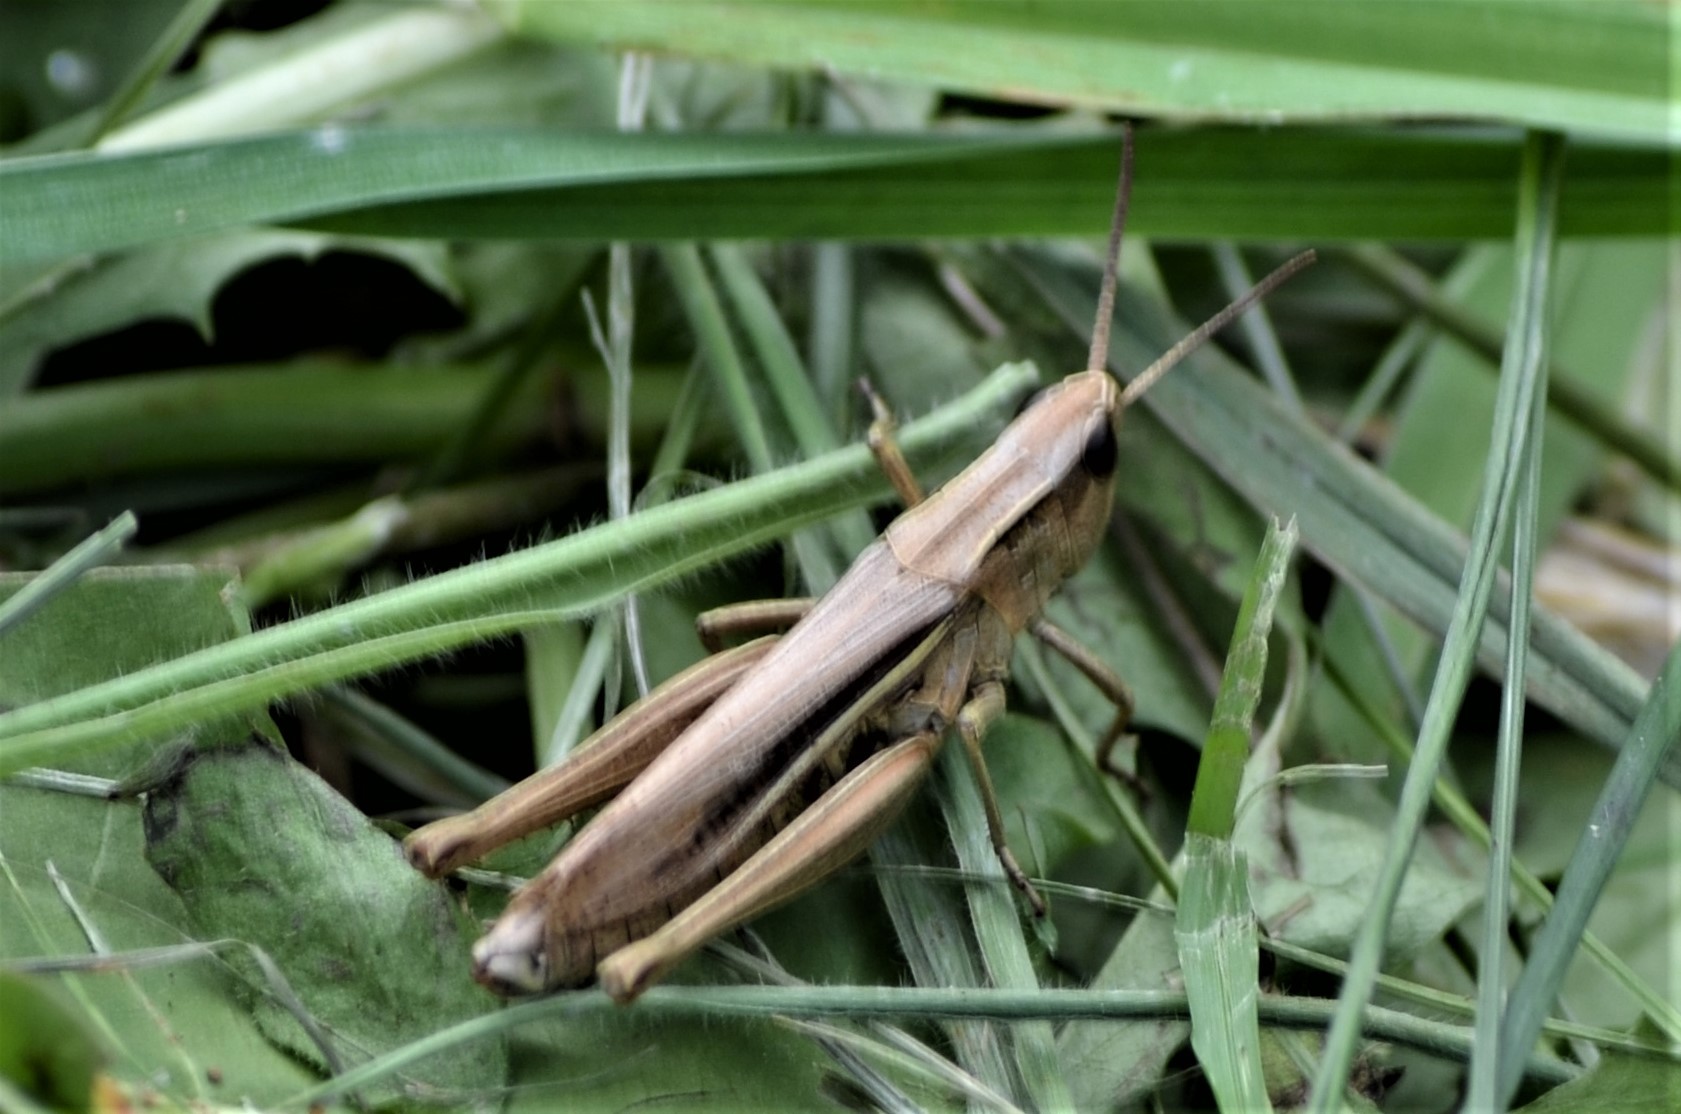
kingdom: Animalia
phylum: Arthropoda
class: Insecta
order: Orthoptera
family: Acrididae
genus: Chorthippus
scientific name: Chorthippus albomarginatus
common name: Lesser marsh grasshopper
